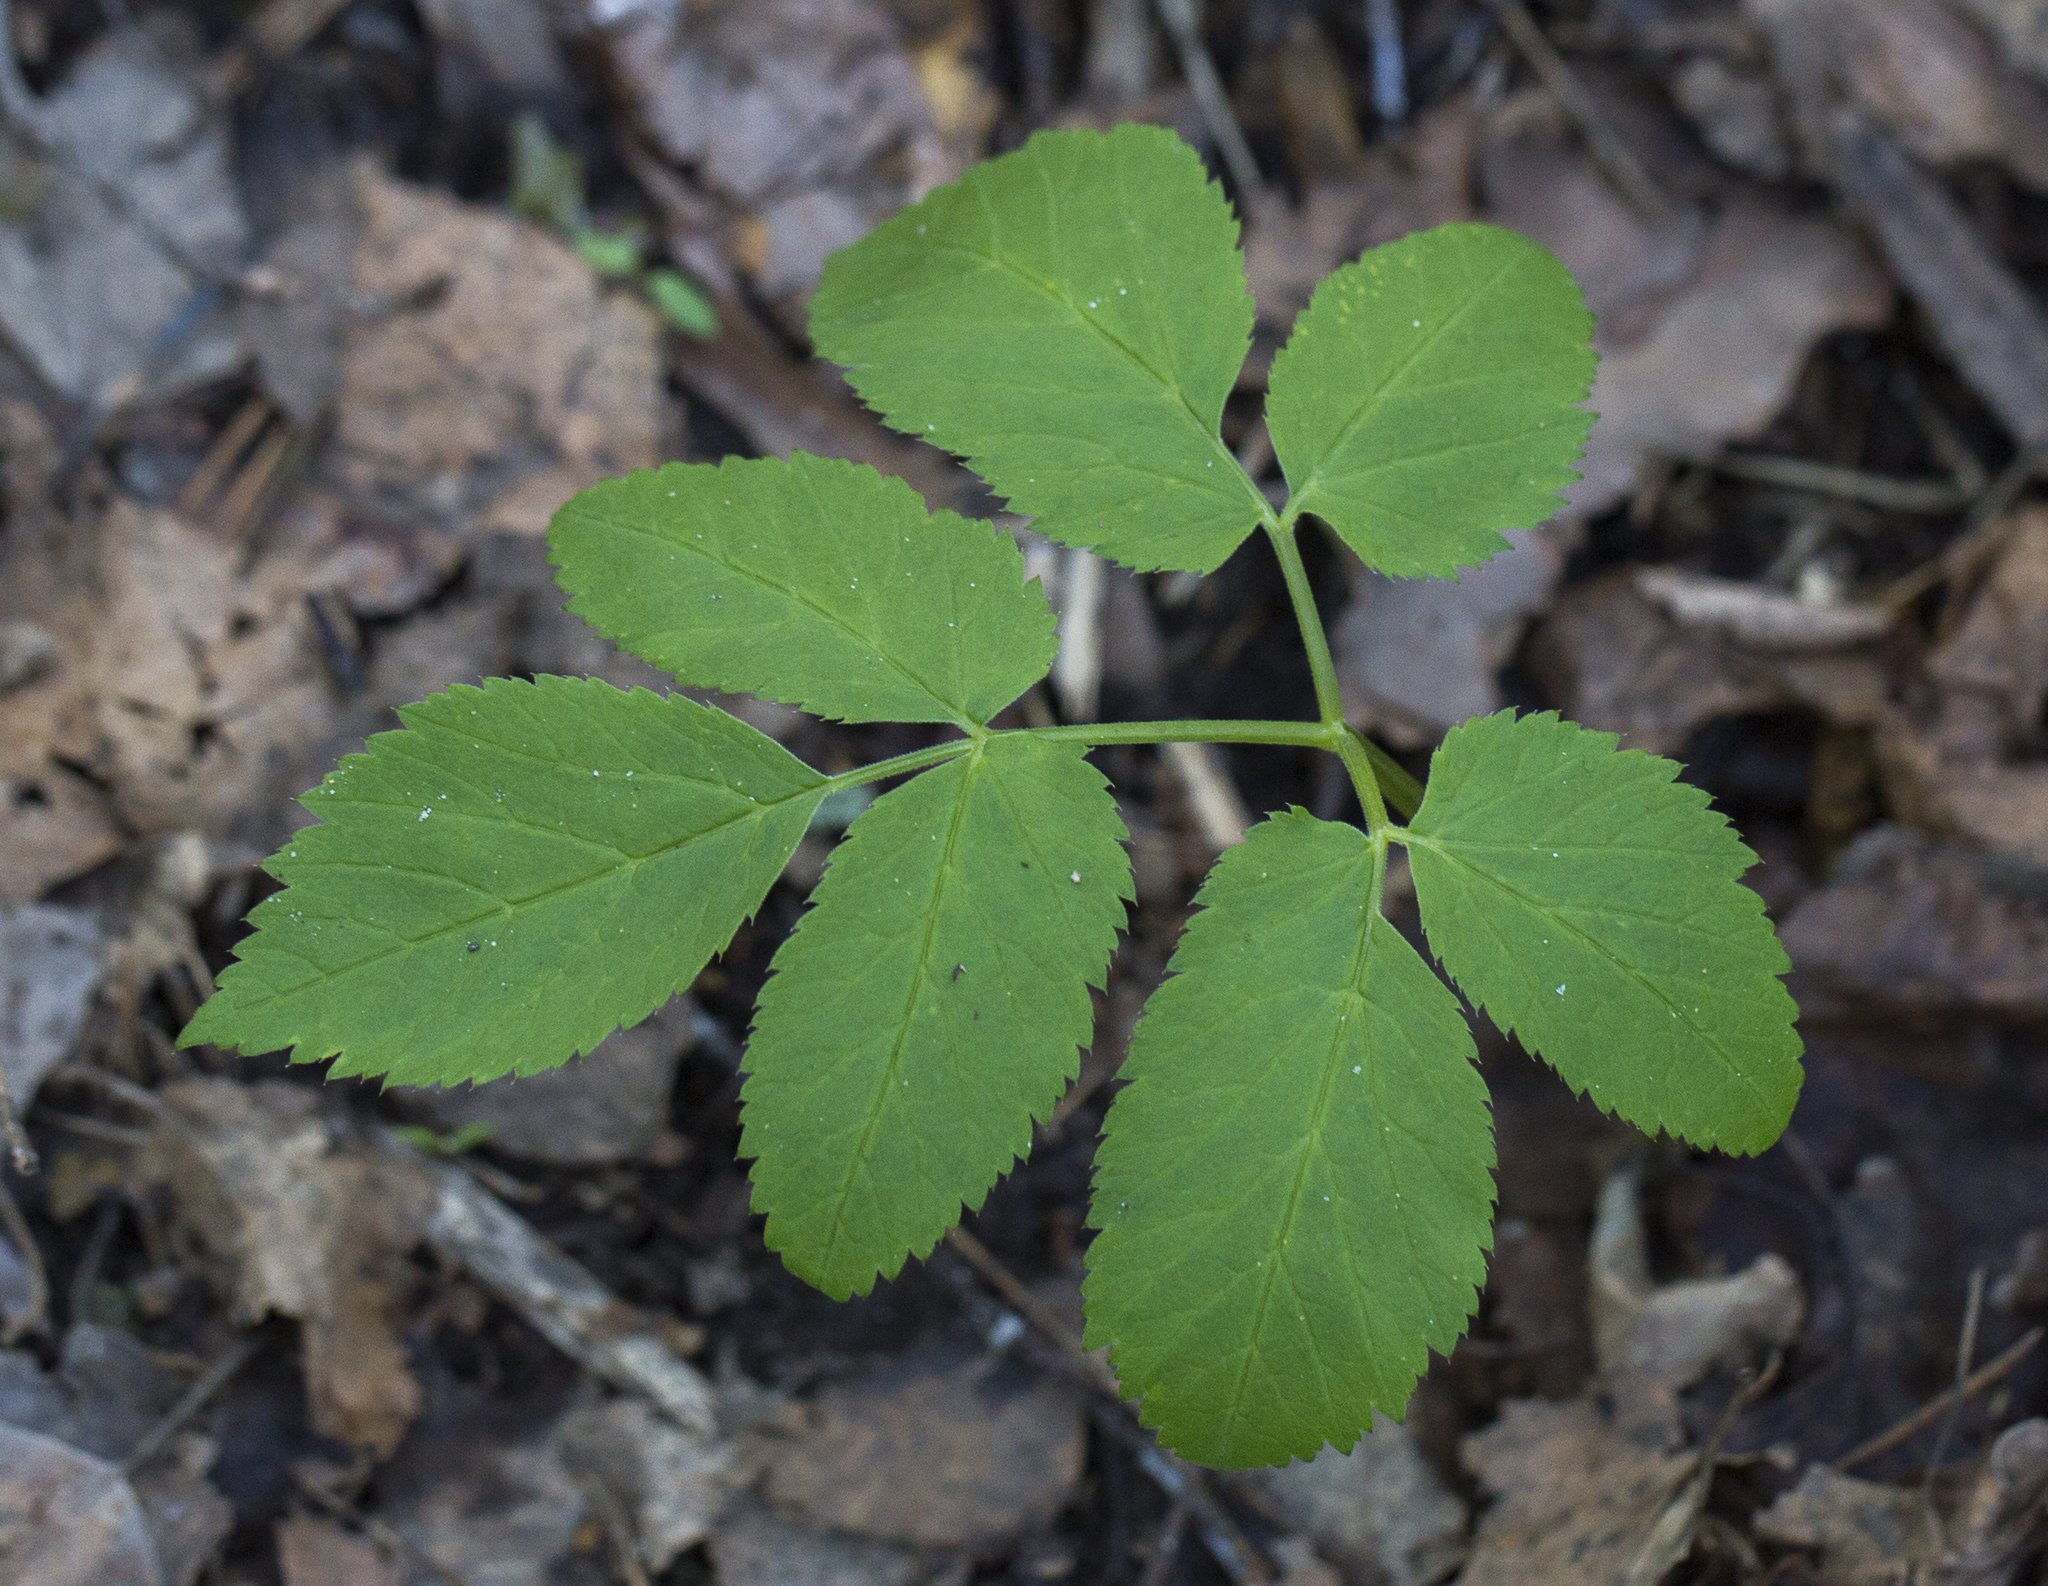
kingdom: Plantae
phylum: Tracheophyta
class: Magnoliopsida
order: Apiales
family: Apiaceae
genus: Aegopodium
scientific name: Aegopodium podagraria
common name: Ground-elder
